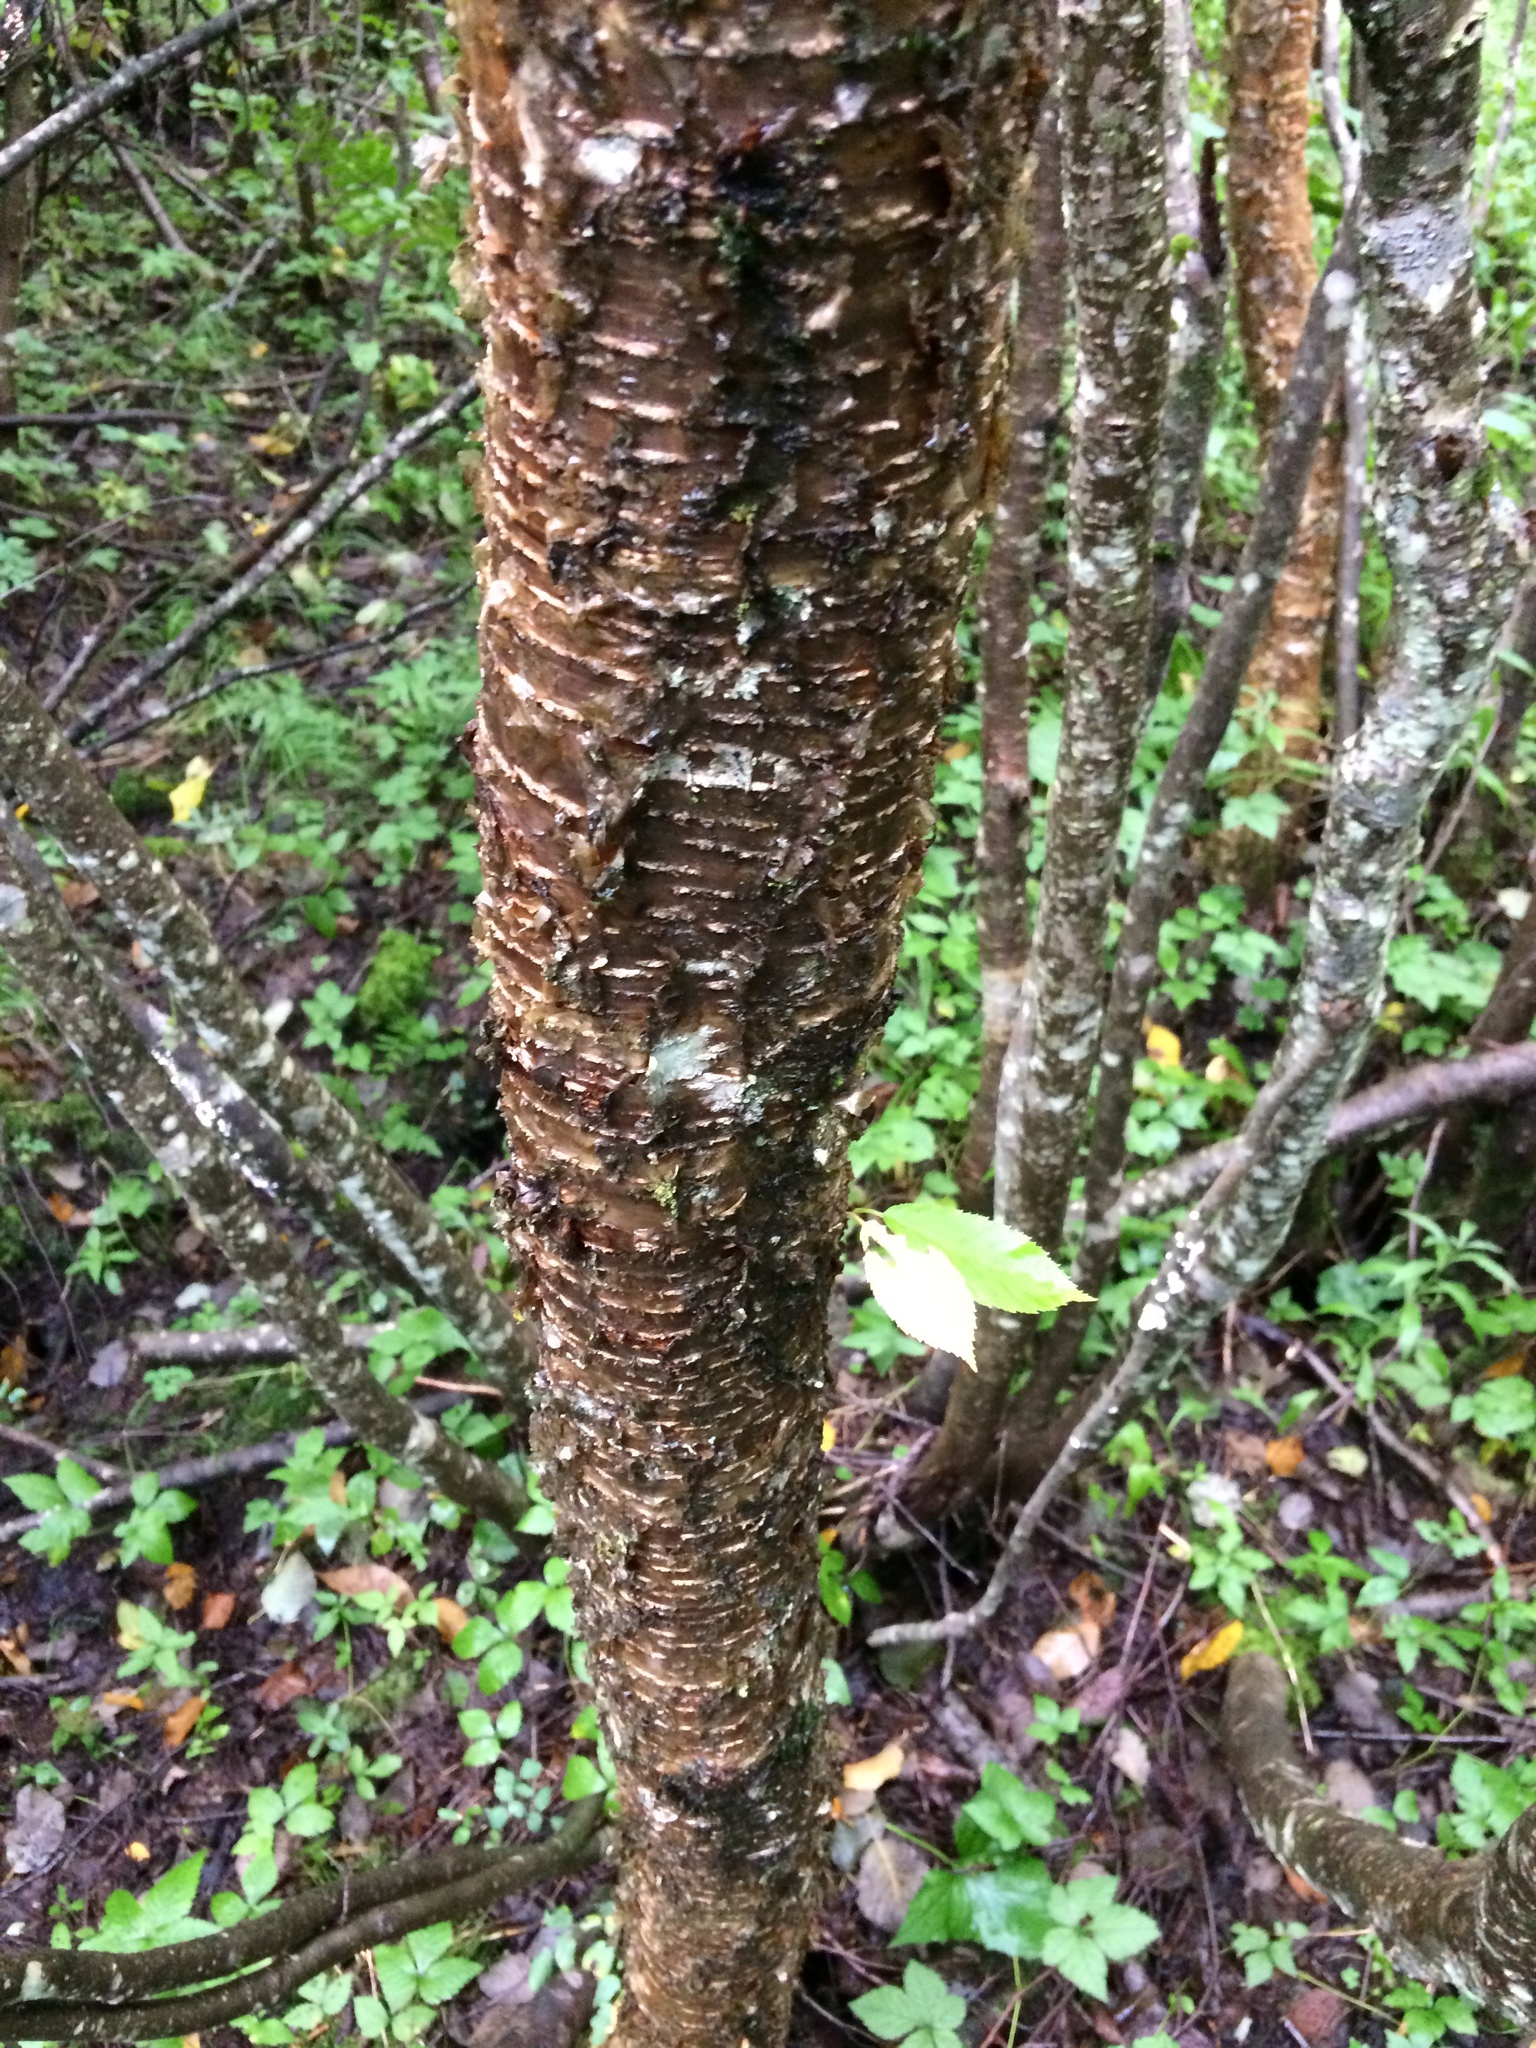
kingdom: Plantae
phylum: Tracheophyta
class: Magnoliopsida
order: Fagales
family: Betulaceae
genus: Betula
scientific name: Betula alleghaniensis
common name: Yellow birch
